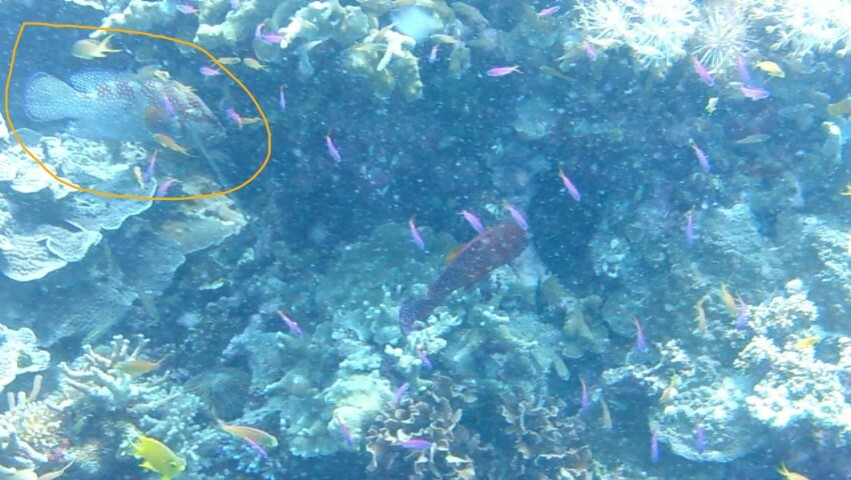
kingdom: Animalia
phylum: Chordata
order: Perciformes
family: Serranidae
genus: Cephalopholis
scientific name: Cephalopholis miniata
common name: Coral hind
